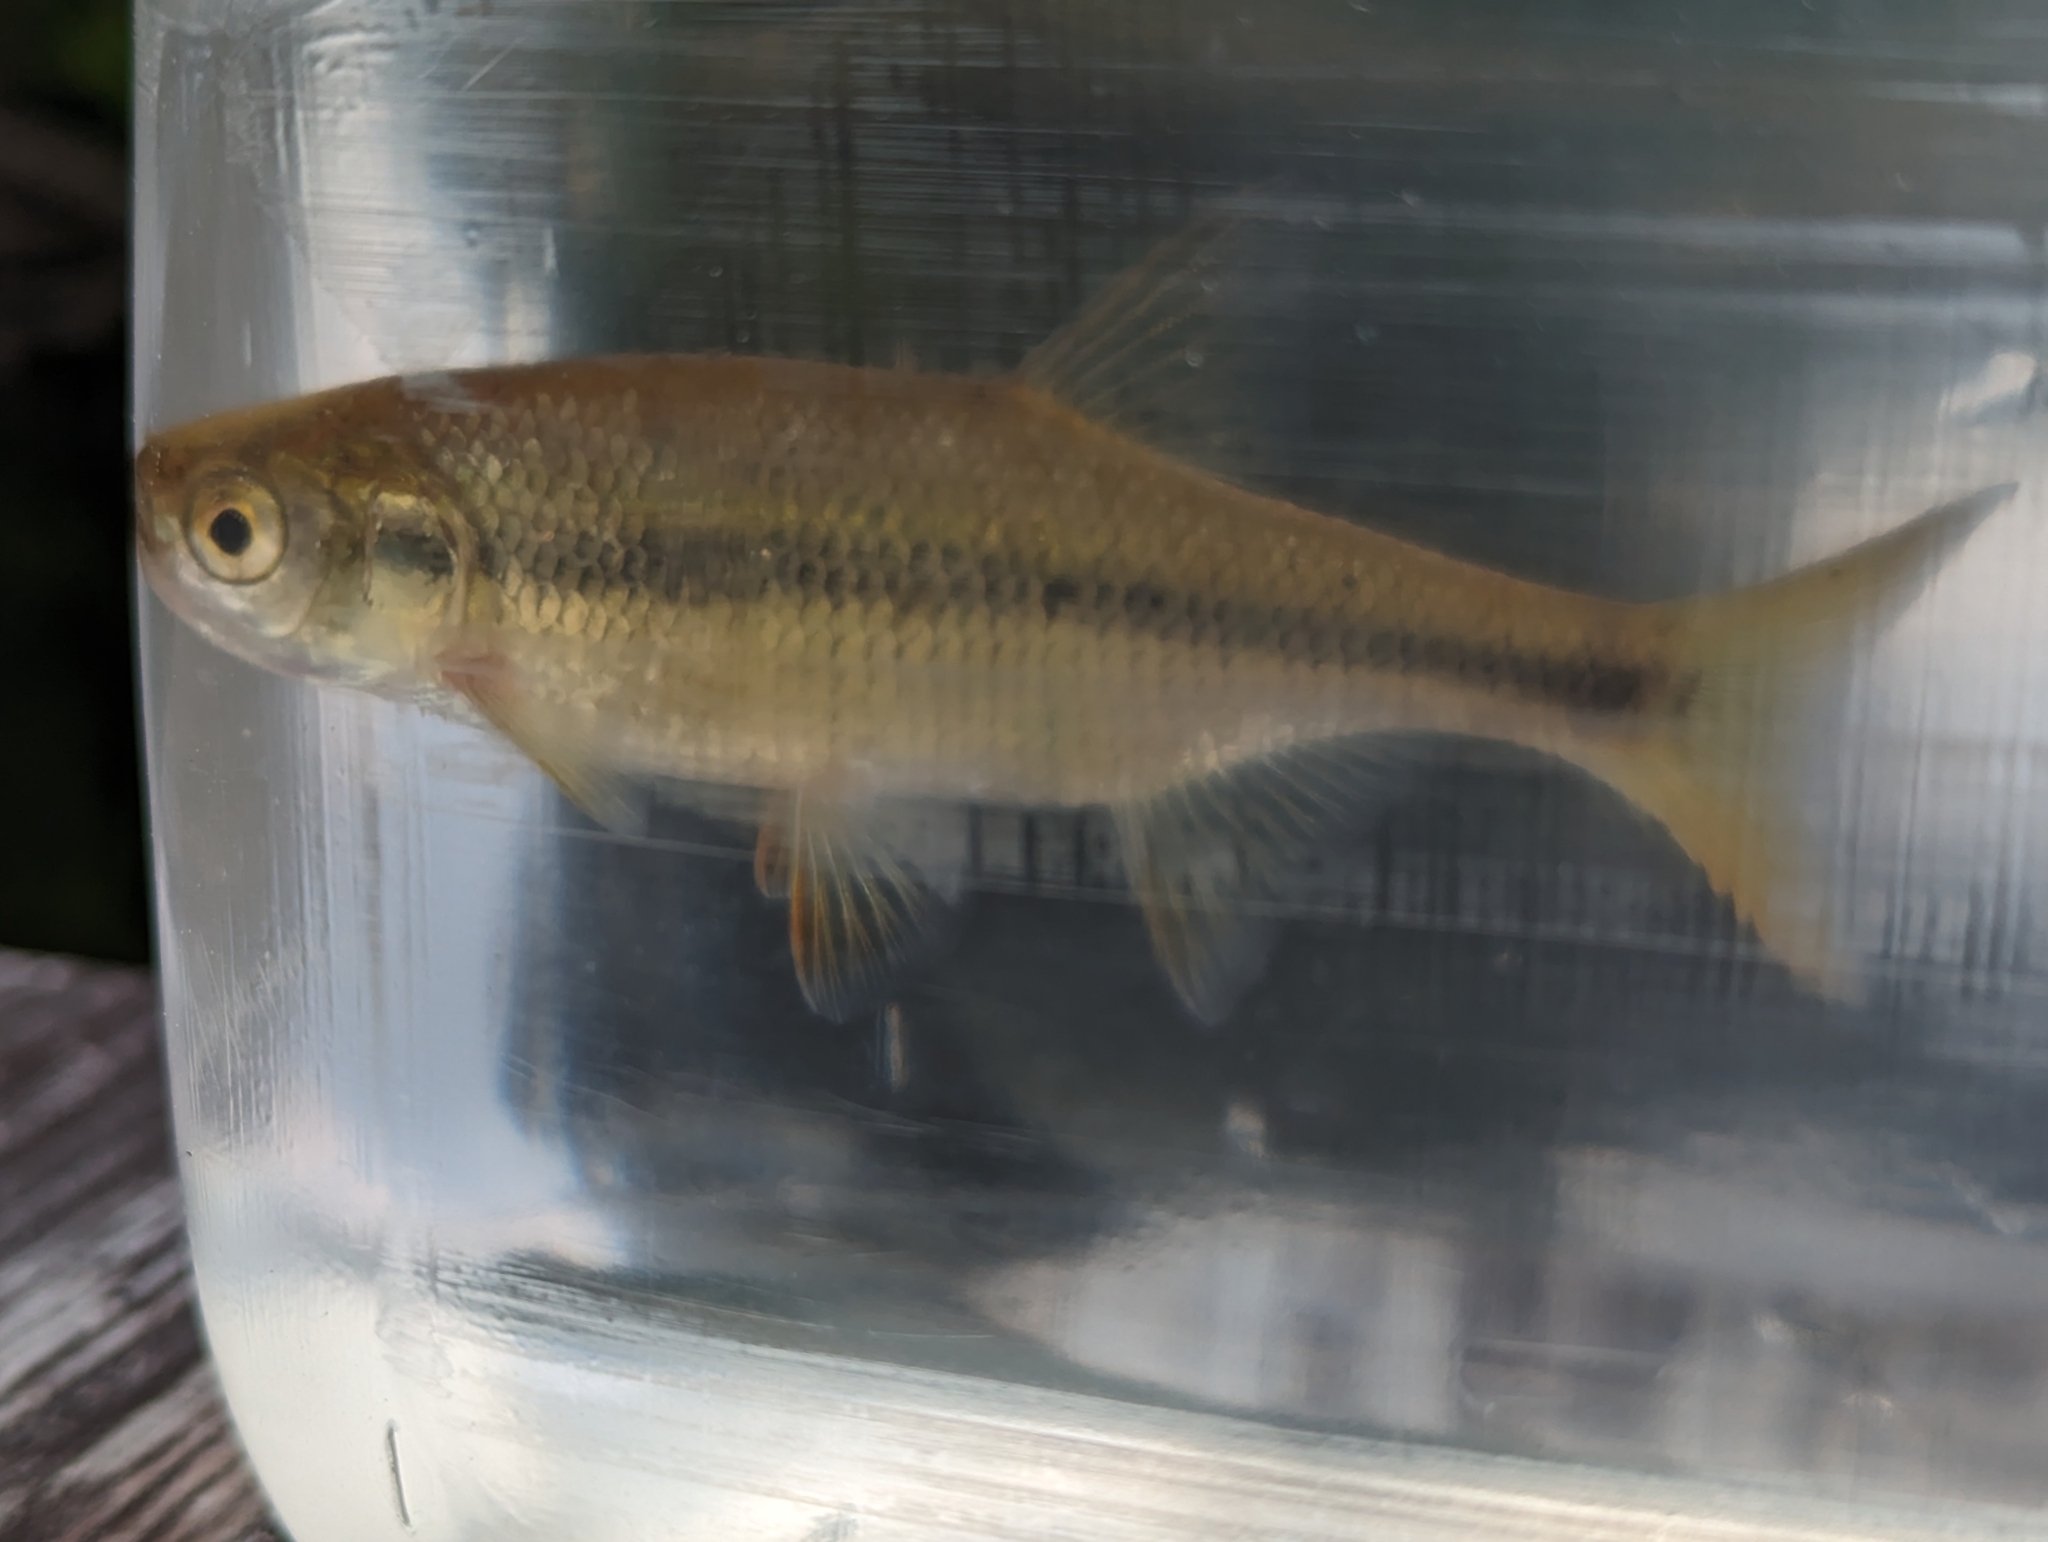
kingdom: Animalia
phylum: Chordata
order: Cypriniformes
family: Cyprinidae
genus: Notemigonus
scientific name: Notemigonus crysoleucas
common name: Golden shiner
